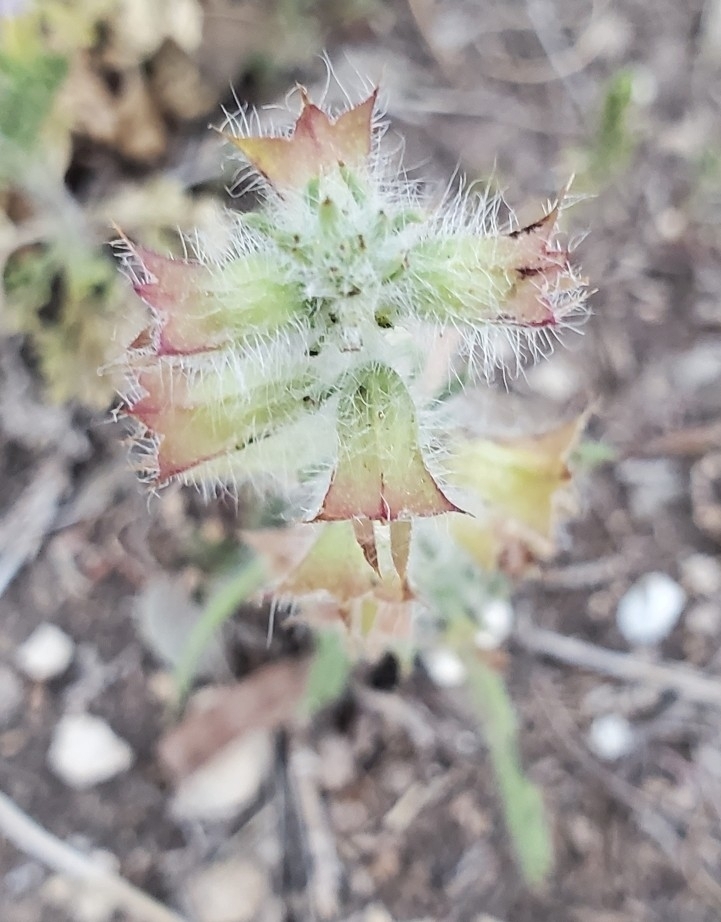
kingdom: Plantae
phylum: Tracheophyta
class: Magnoliopsida
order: Lamiales
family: Lamiaceae
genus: Salvia
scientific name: Salvia texana
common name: Texas sage
